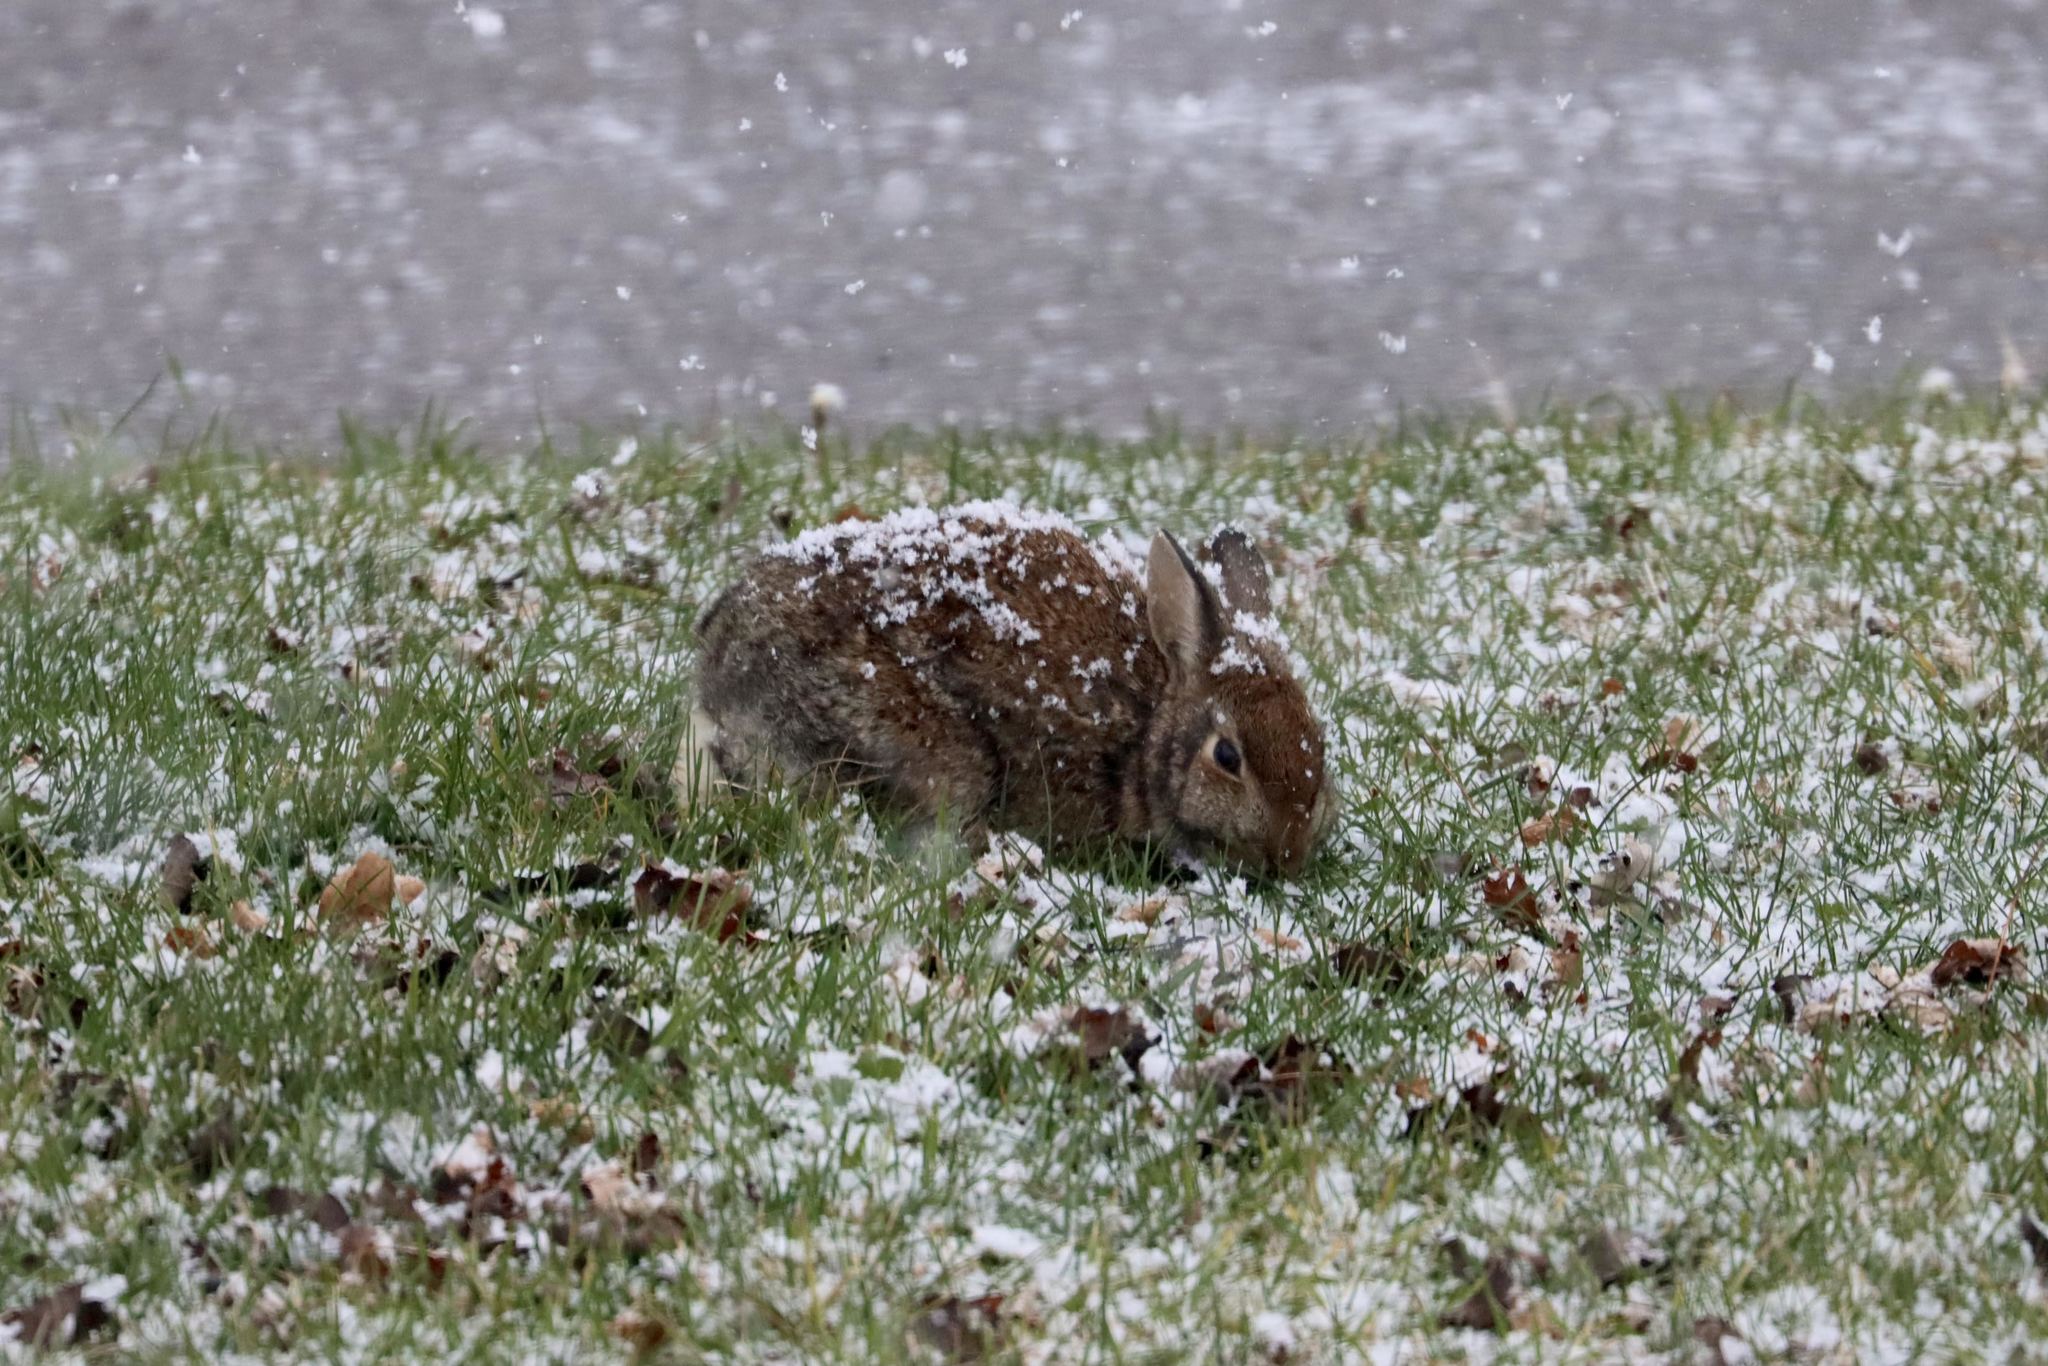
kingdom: Animalia
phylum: Chordata
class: Mammalia
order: Lagomorpha
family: Leporidae
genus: Sylvilagus
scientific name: Sylvilagus floridanus
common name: Eastern cottontail
